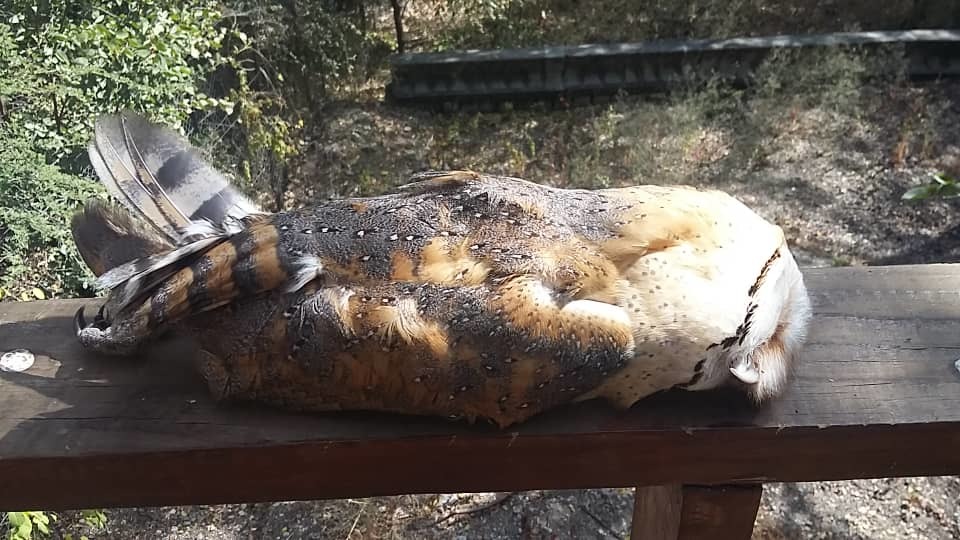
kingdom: Animalia
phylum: Chordata
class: Aves
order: Strigiformes
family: Tytonidae
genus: Tyto
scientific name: Tyto alba
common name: Barn owl
